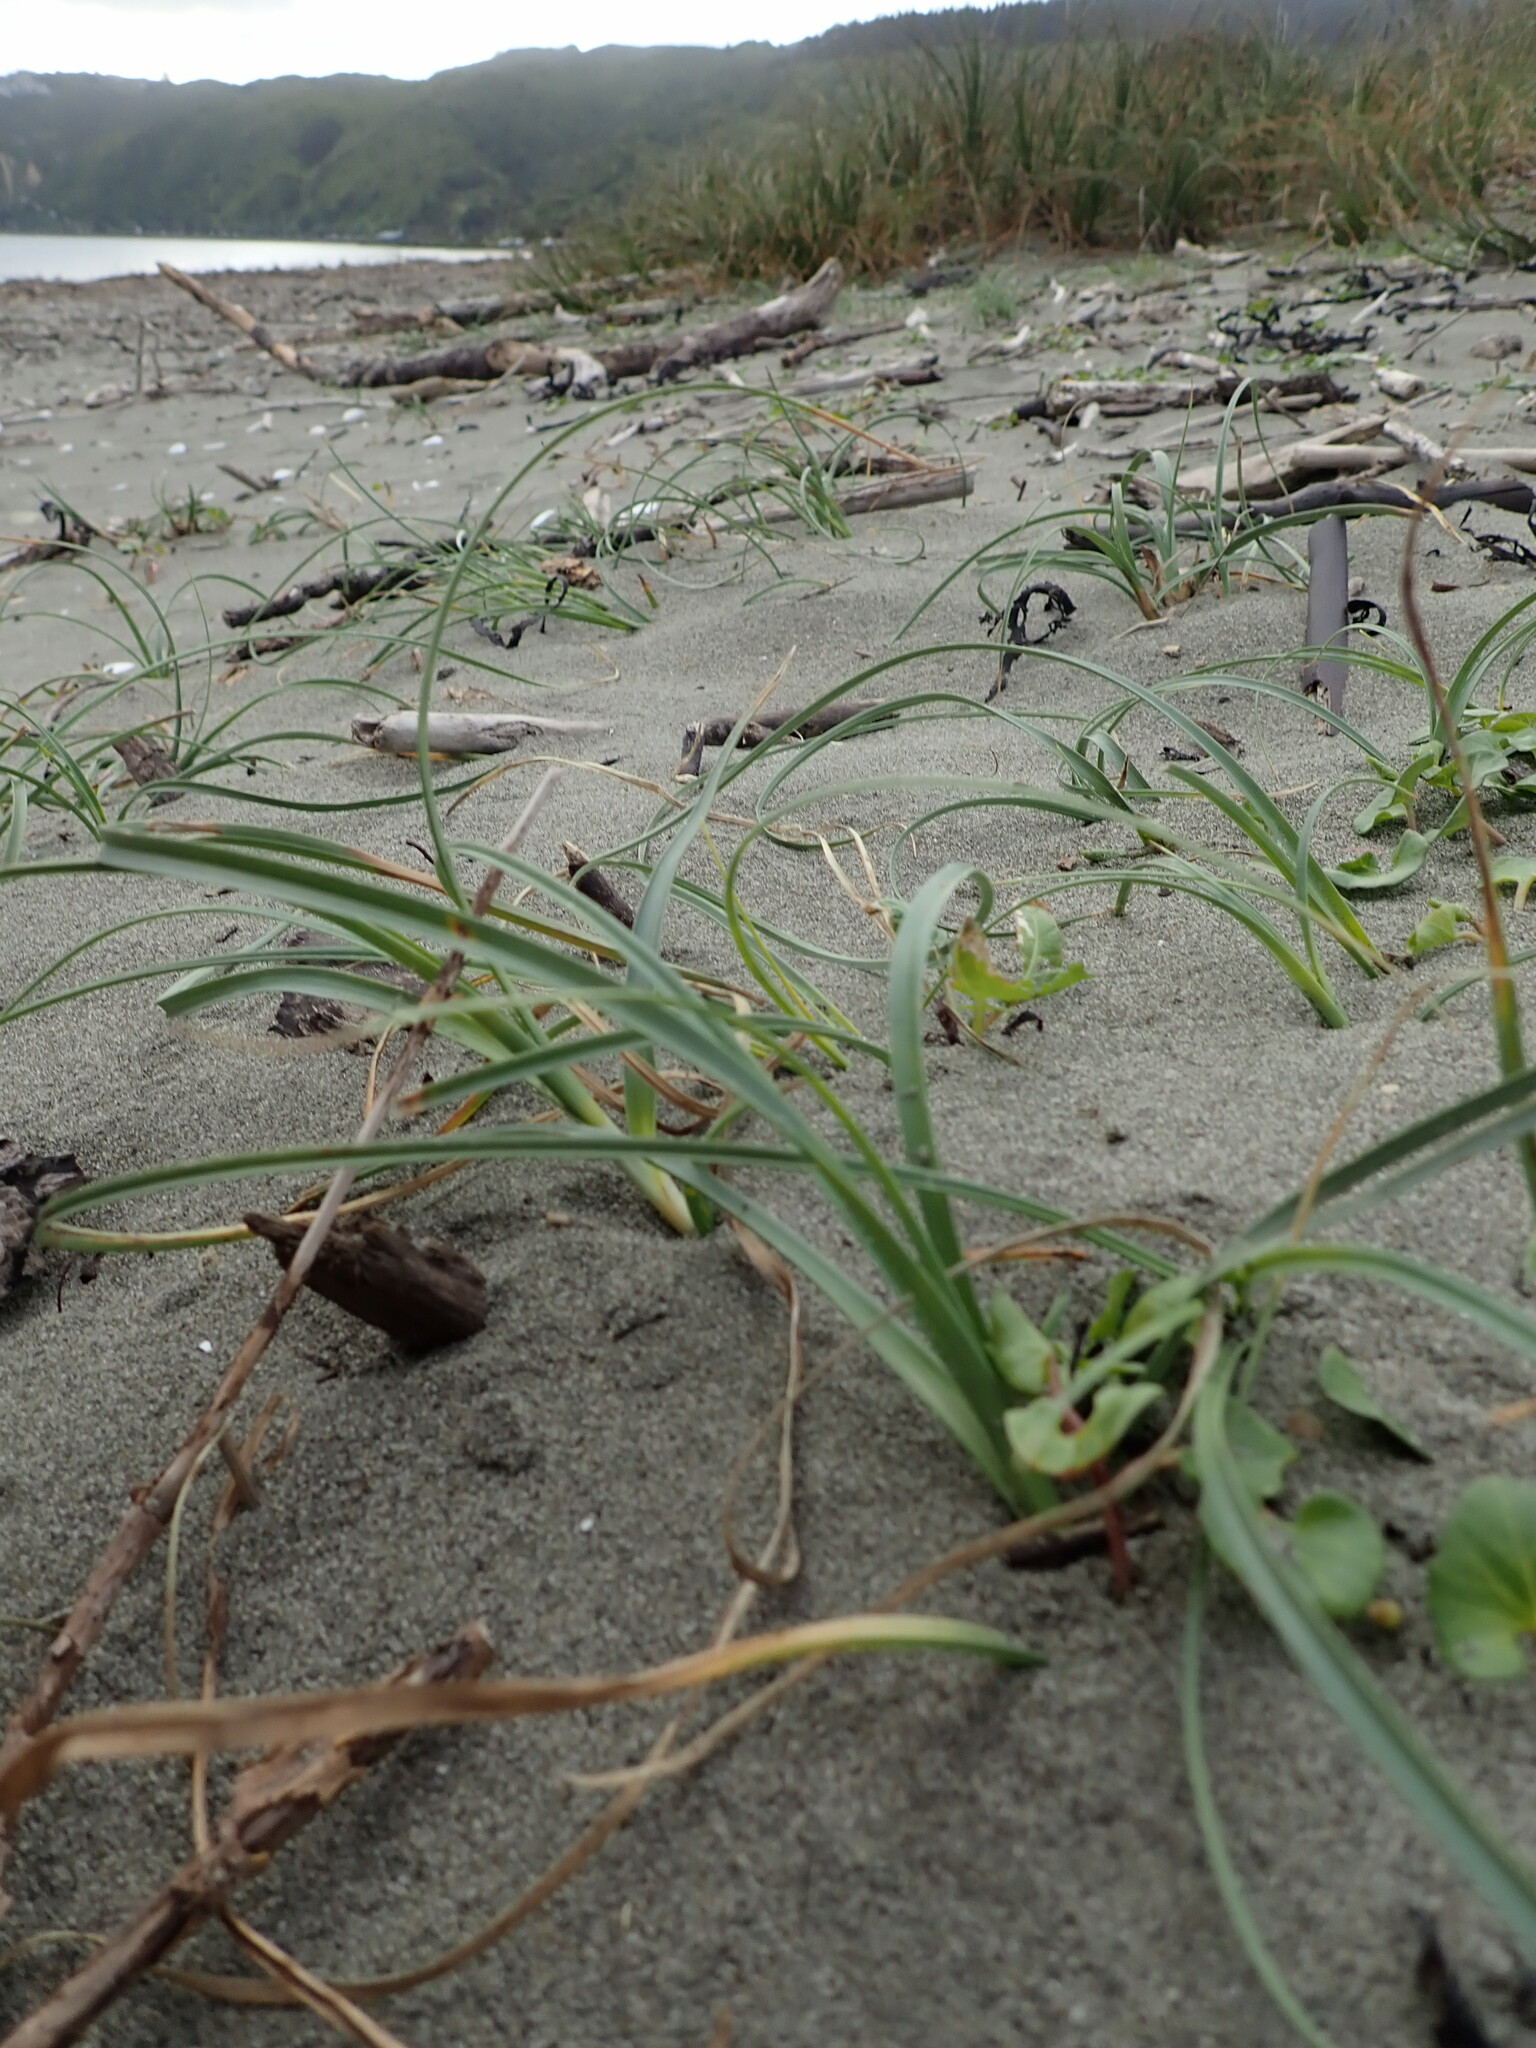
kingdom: Plantae
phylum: Tracheophyta
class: Liliopsida
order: Poales
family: Cyperaceae
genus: Carex
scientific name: Carex pumila
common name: Dwarf sedge
